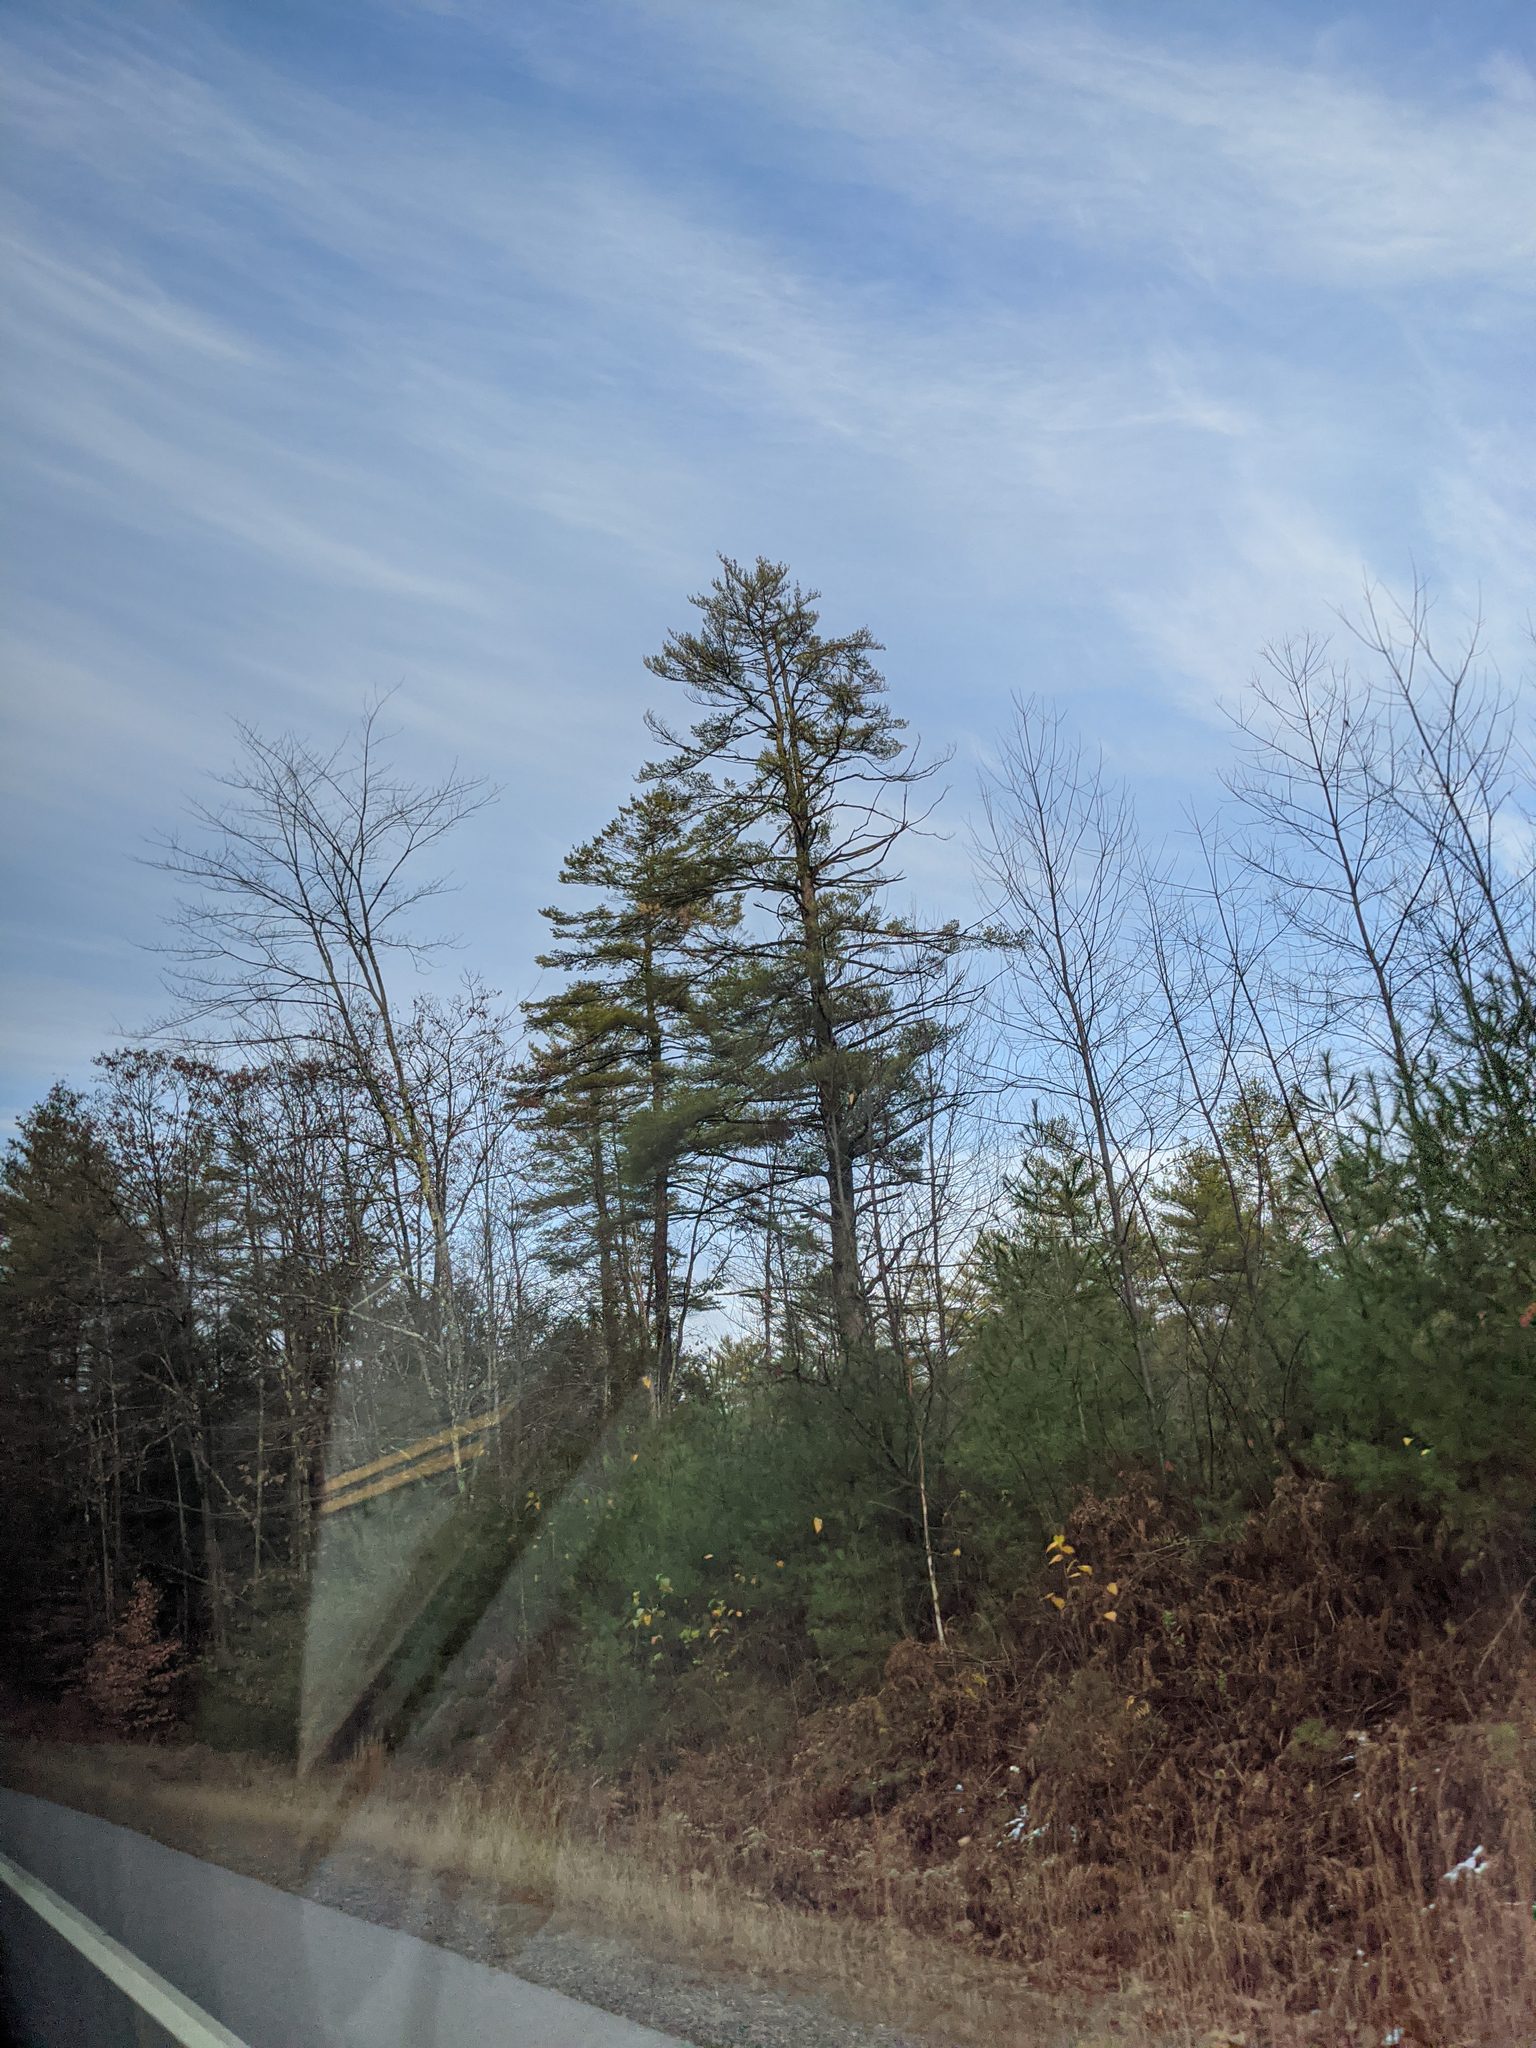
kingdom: Plantae
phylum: Tracheophyta
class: Pinopsida
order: Pinales
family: Pinaceae
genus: Pinus
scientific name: Pinus strobus
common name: Weymouth pine
